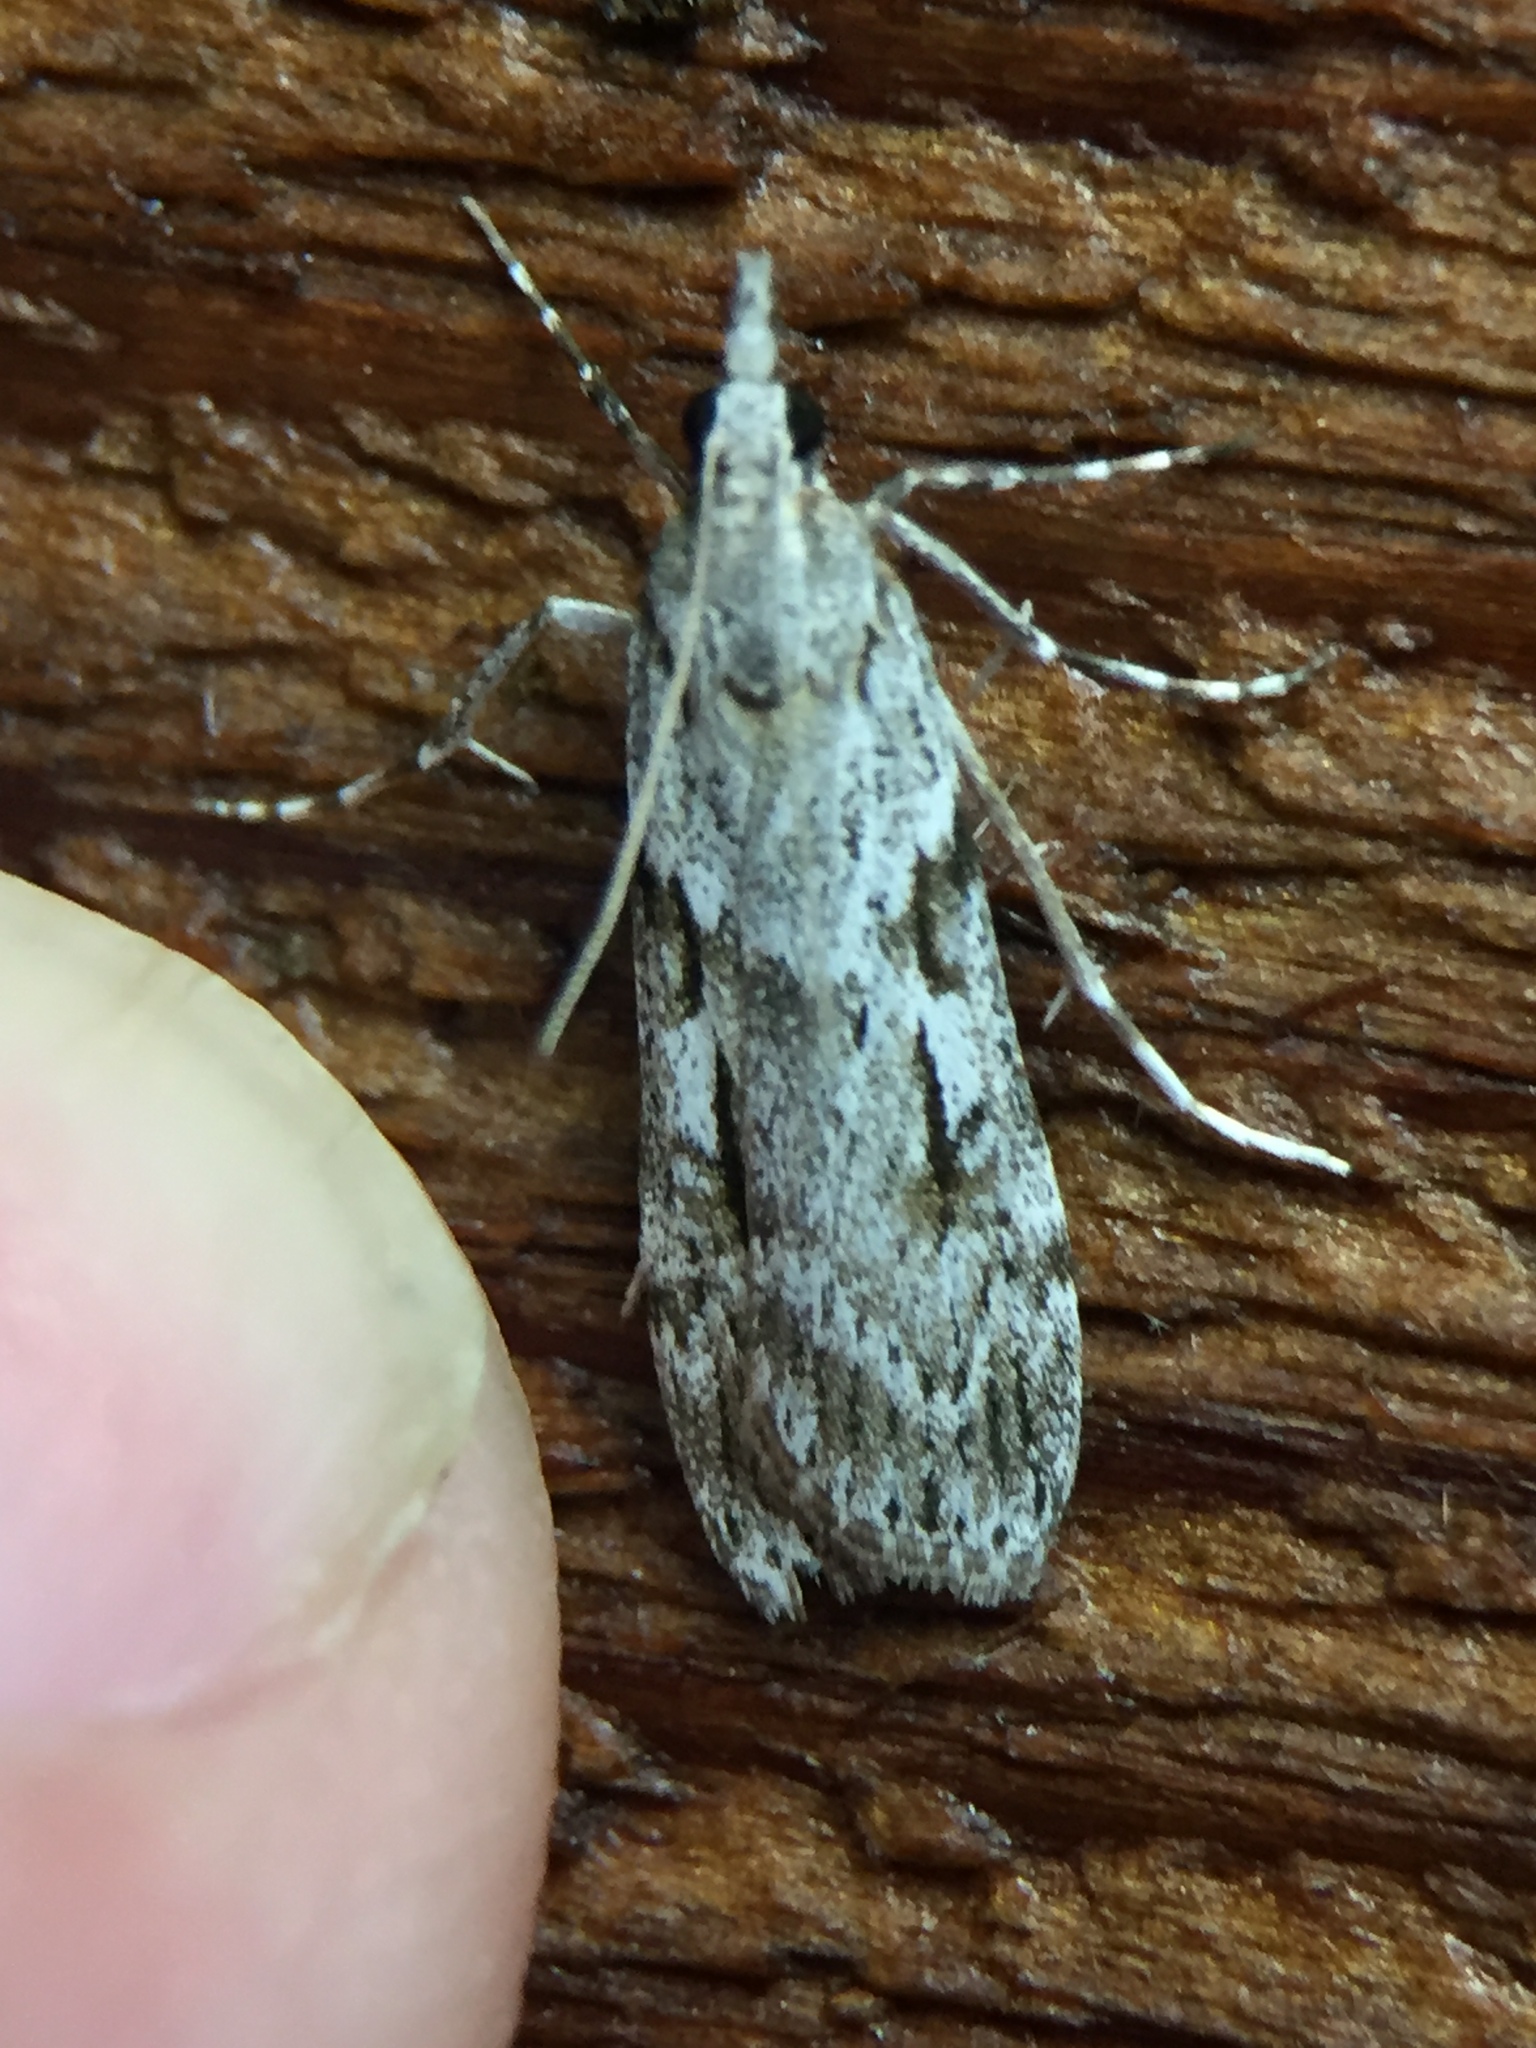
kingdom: Animalia
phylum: Arthropoda
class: Insecta
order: Lepidoptera
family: Crambidae
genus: Scoparia
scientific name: Scoparia halopis
